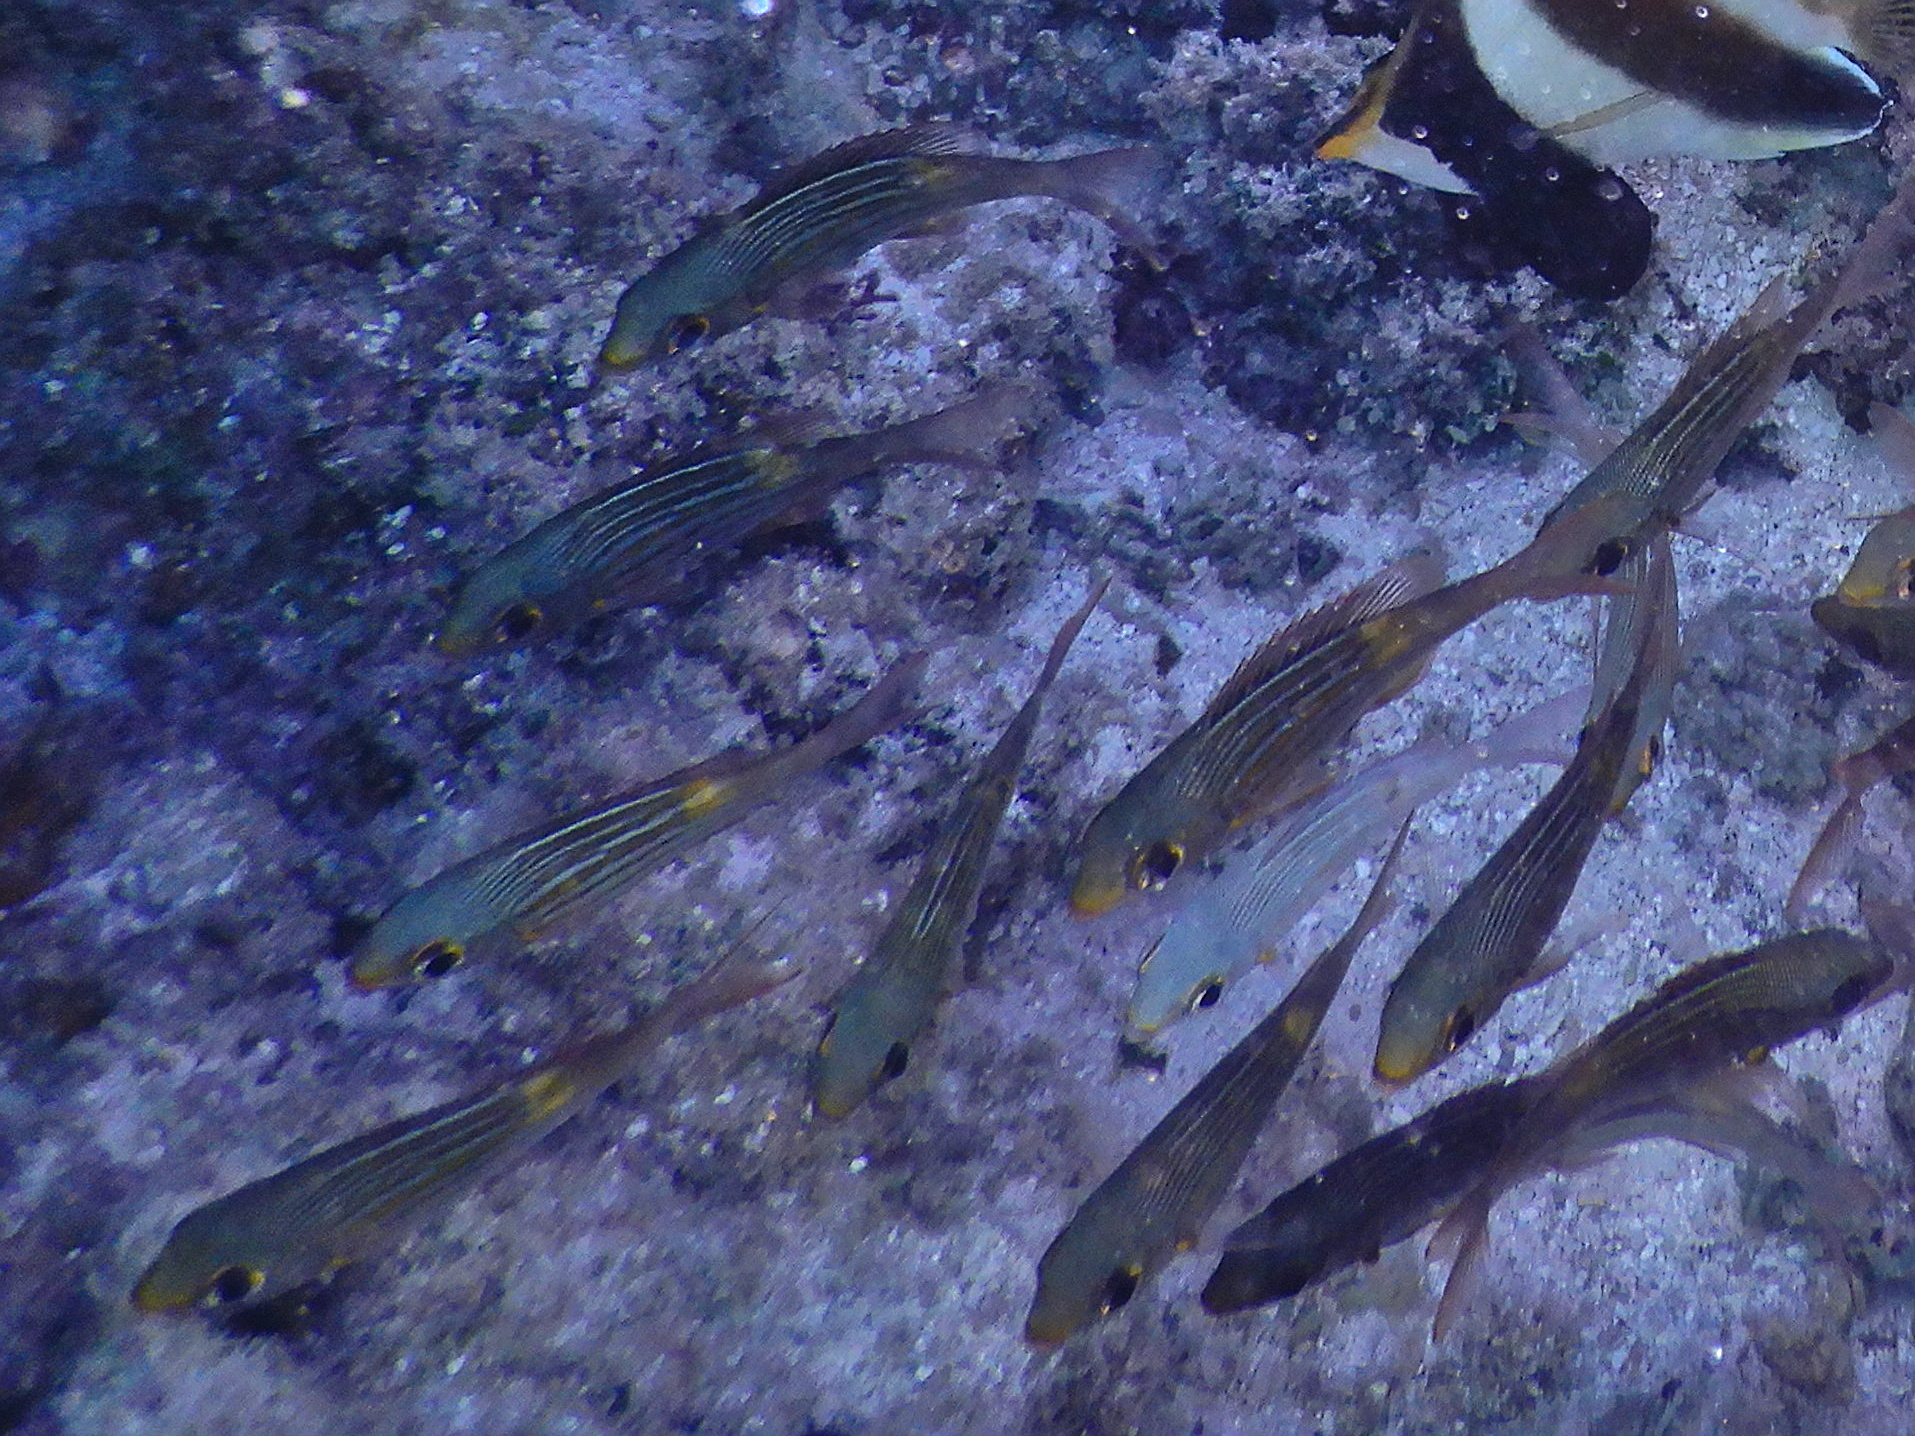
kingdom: Animalia
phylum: Chordata
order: Perciformes
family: Lethrinidae
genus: Gnathodentex
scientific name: Gnathodentex aureolineatus
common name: Gold-lined sea bream
